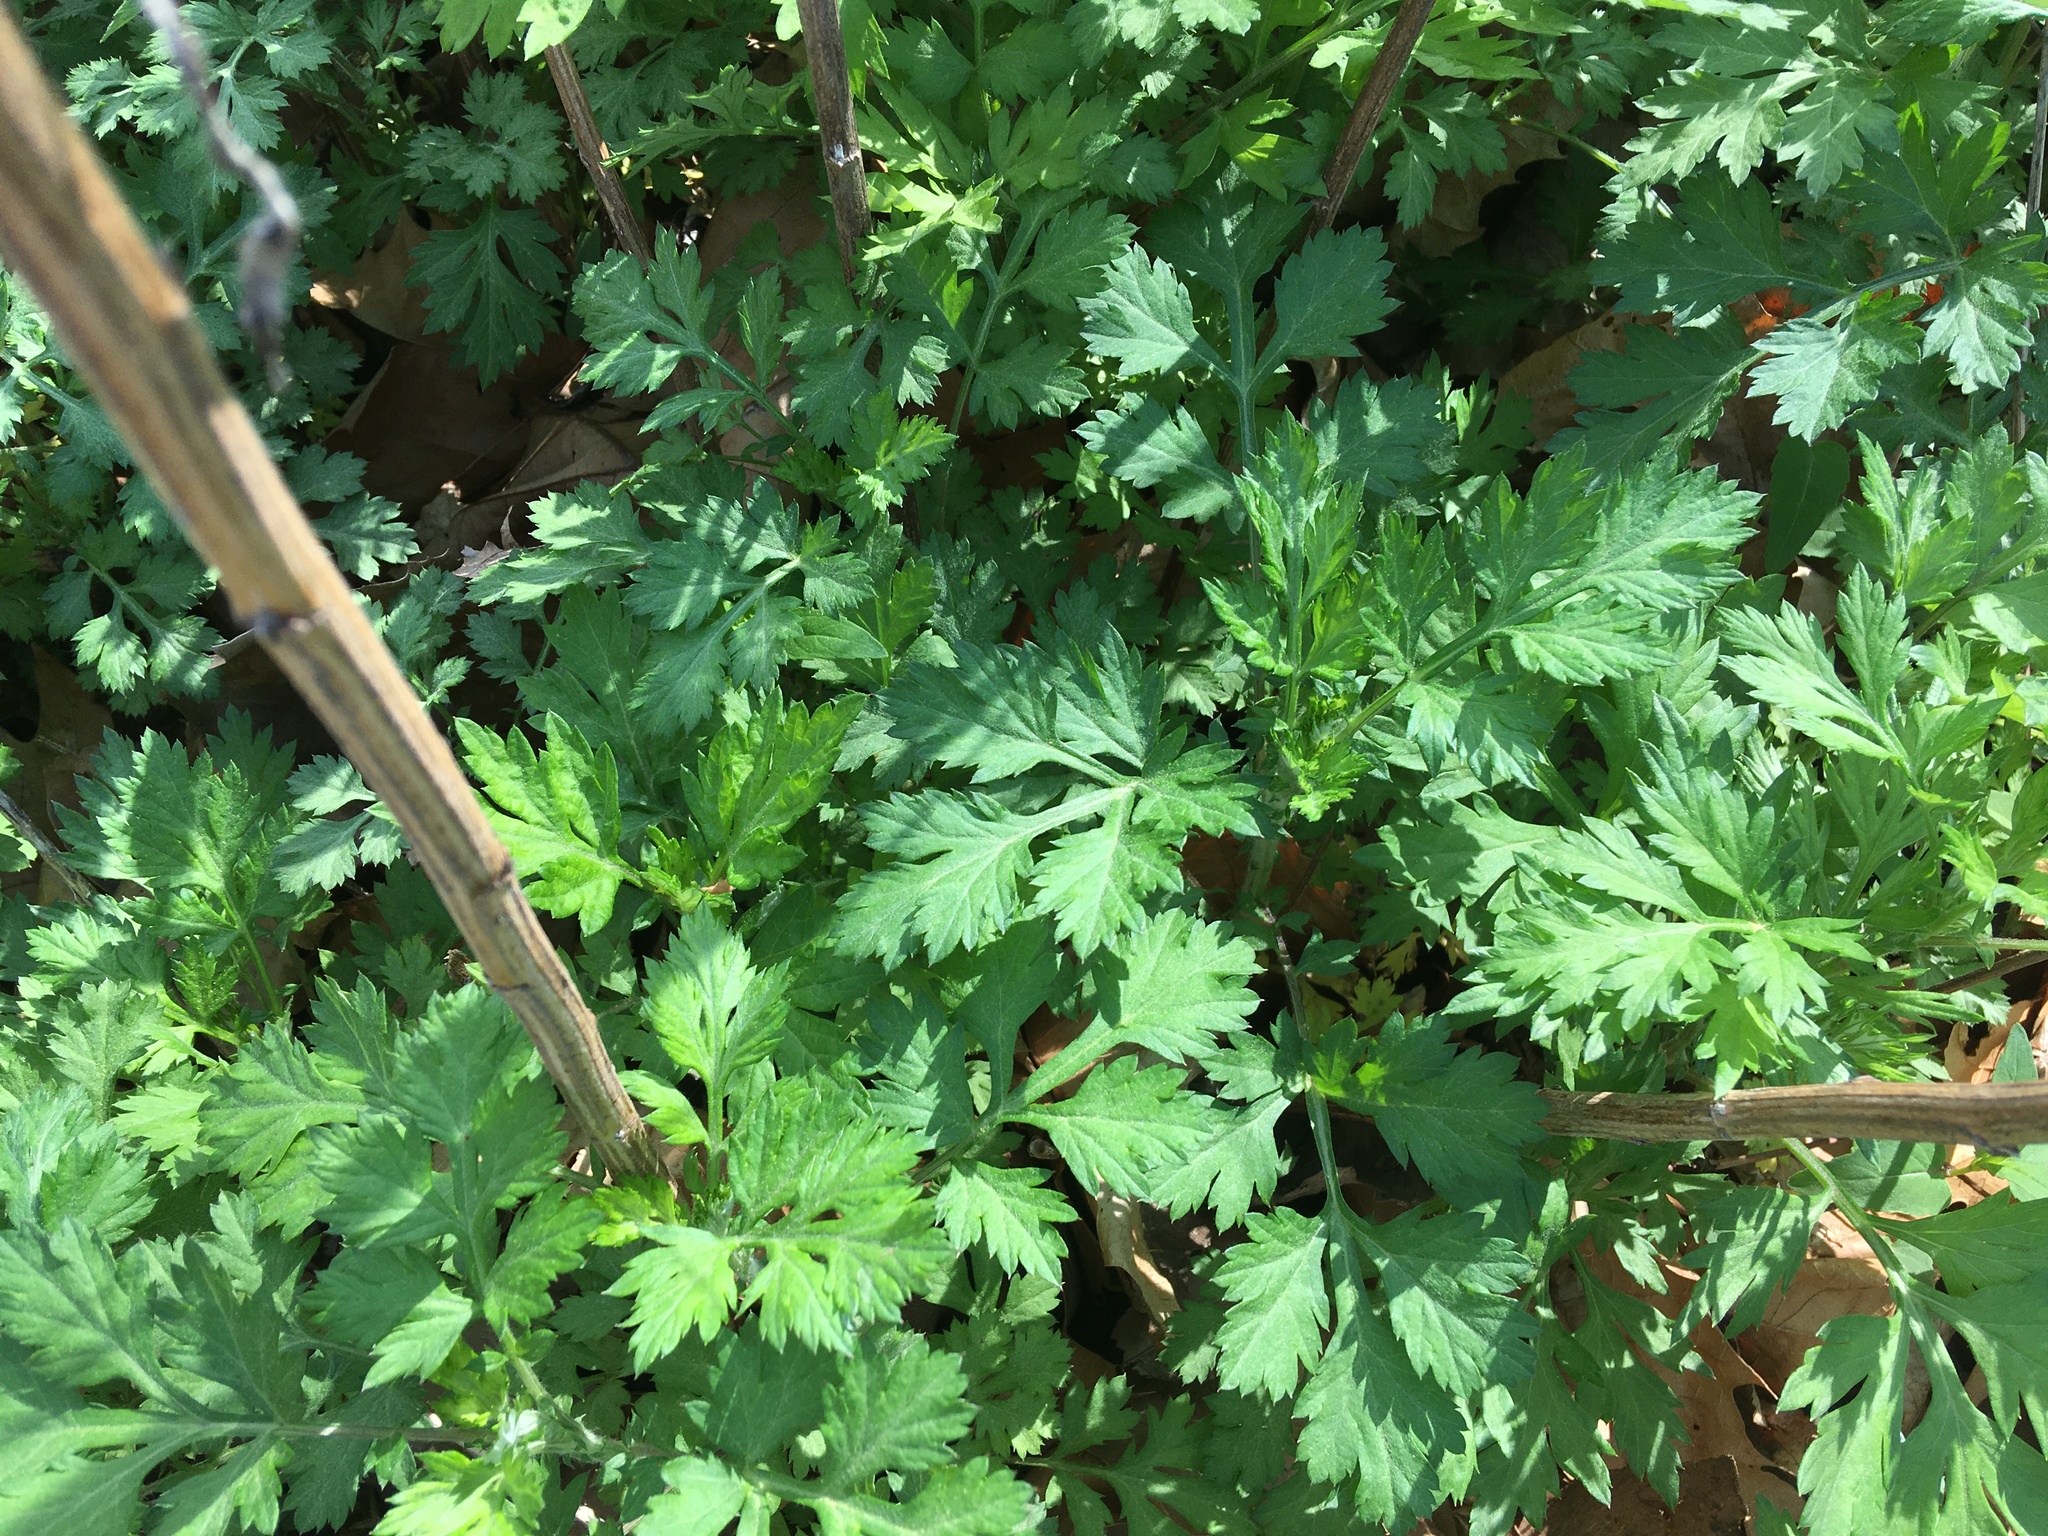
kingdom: Plantae
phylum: Tracheophyta
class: Magnoliopsida
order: Asterales
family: Asteraceae
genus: Artemisia
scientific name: Artemisia vulgaris
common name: Mugwort
